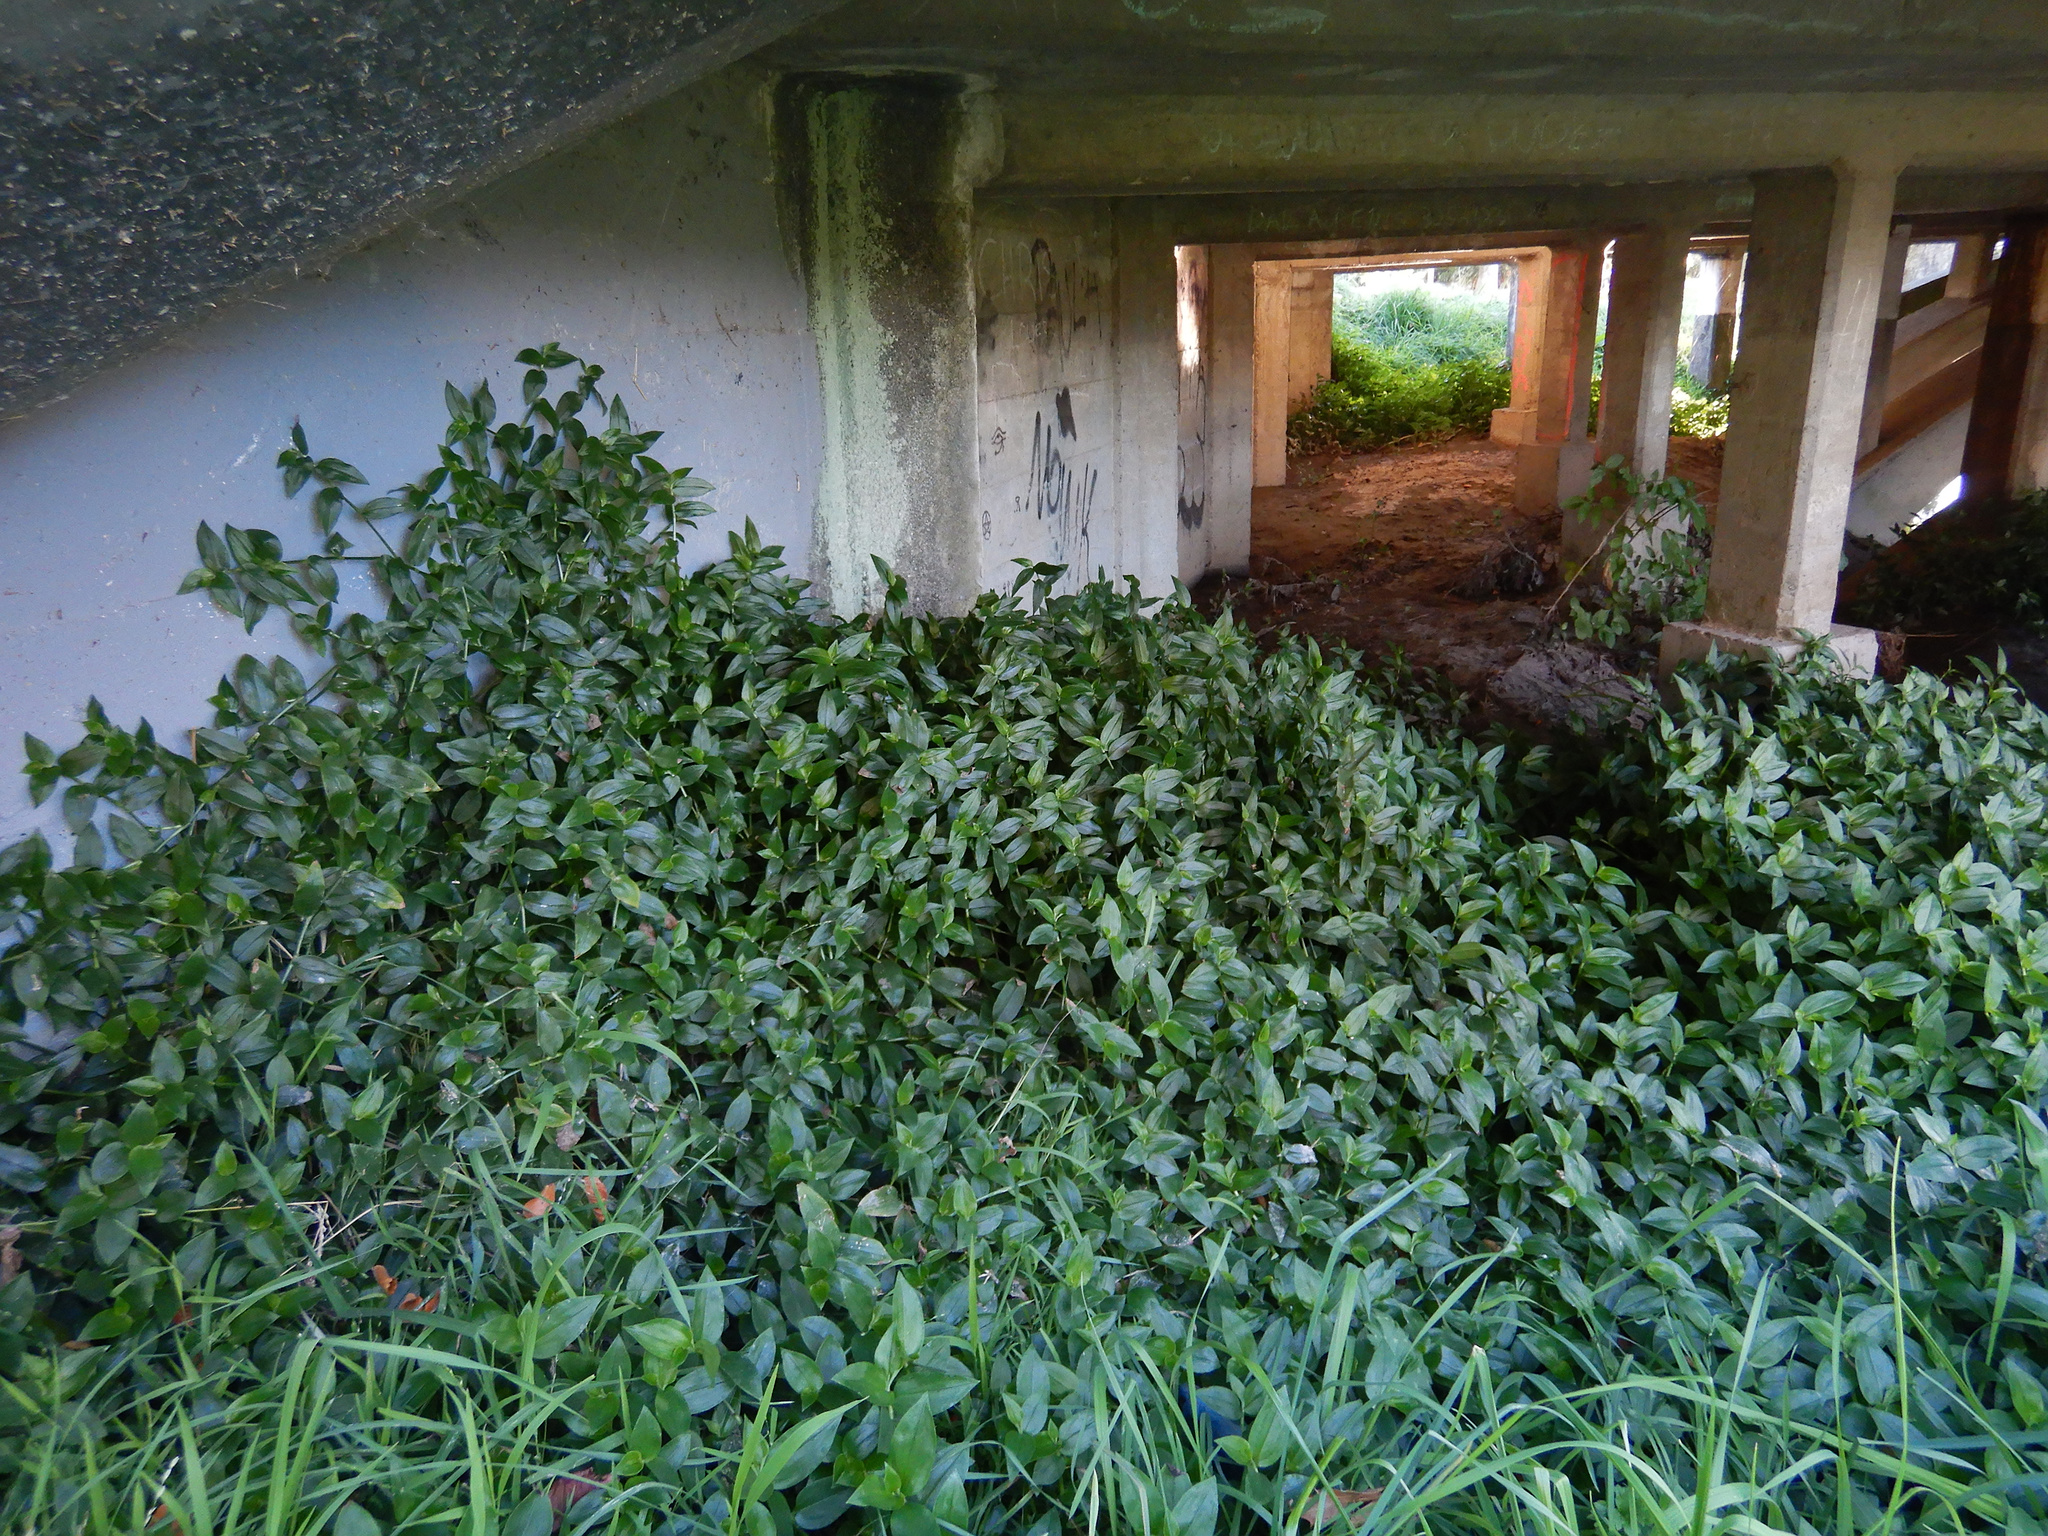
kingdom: Plantae
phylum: Tracheophyta
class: Liliopsida
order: Commelinales
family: Commelinaceae
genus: Tradescantia
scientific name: Tradescantia fluminensis
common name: Wandering-jew
